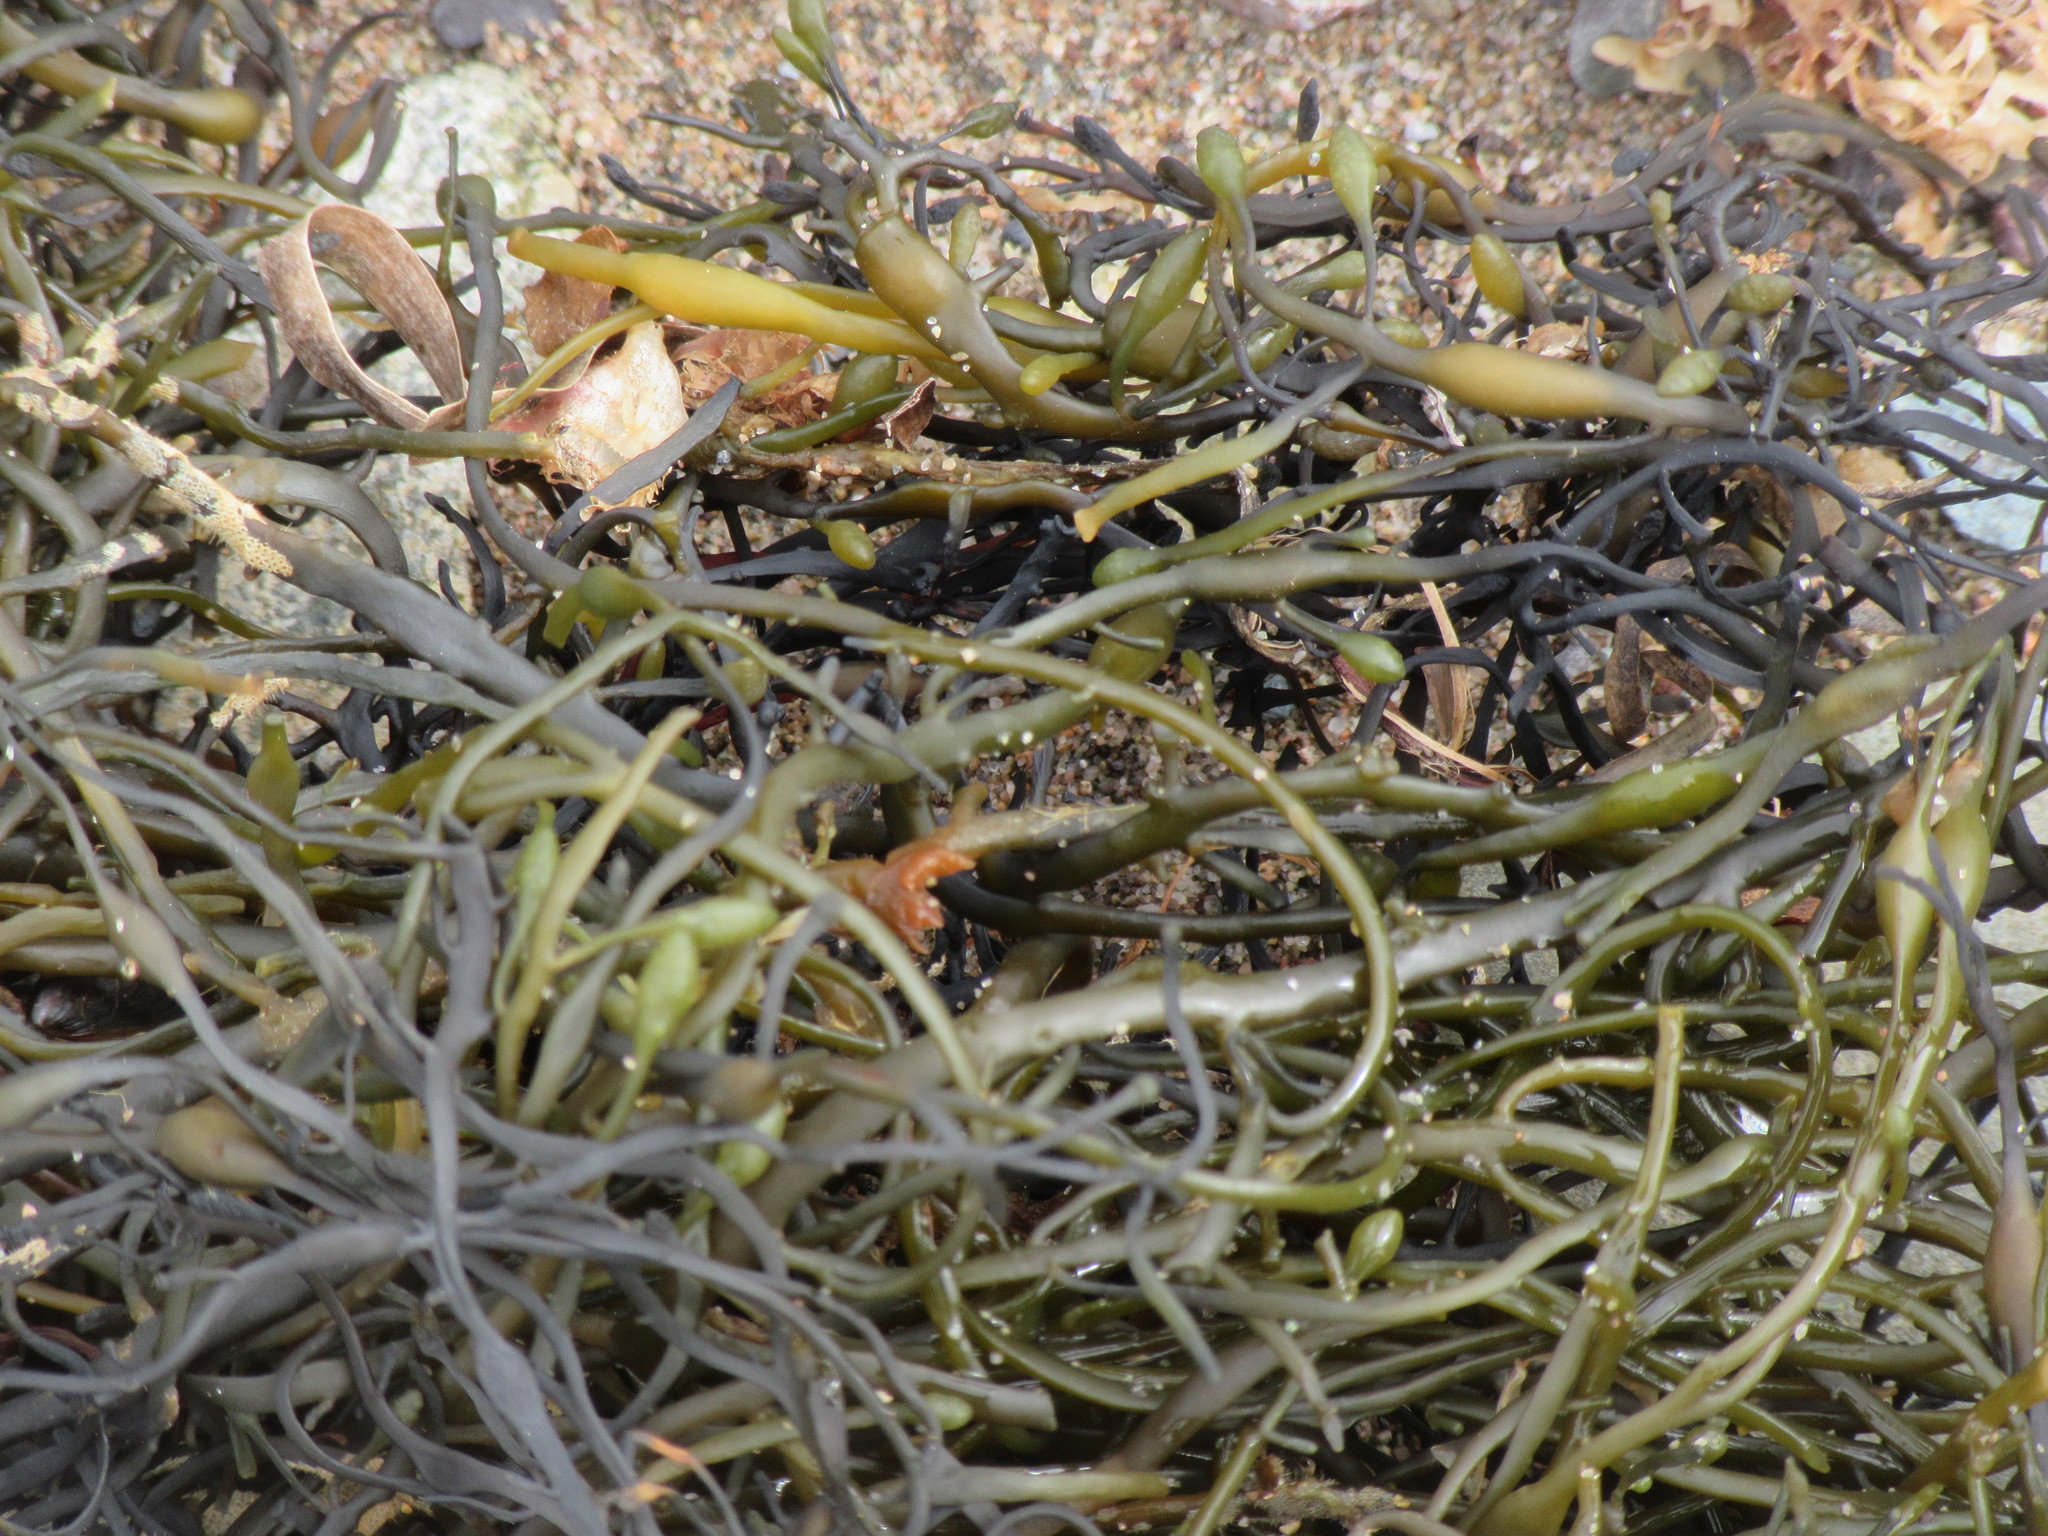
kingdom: Chromista
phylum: Ochrophyta
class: Phaeophyceae
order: Fucales
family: Fucaceae
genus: Ascophyllum
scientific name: Ascophyllum nodosum
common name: Knotted wrack
